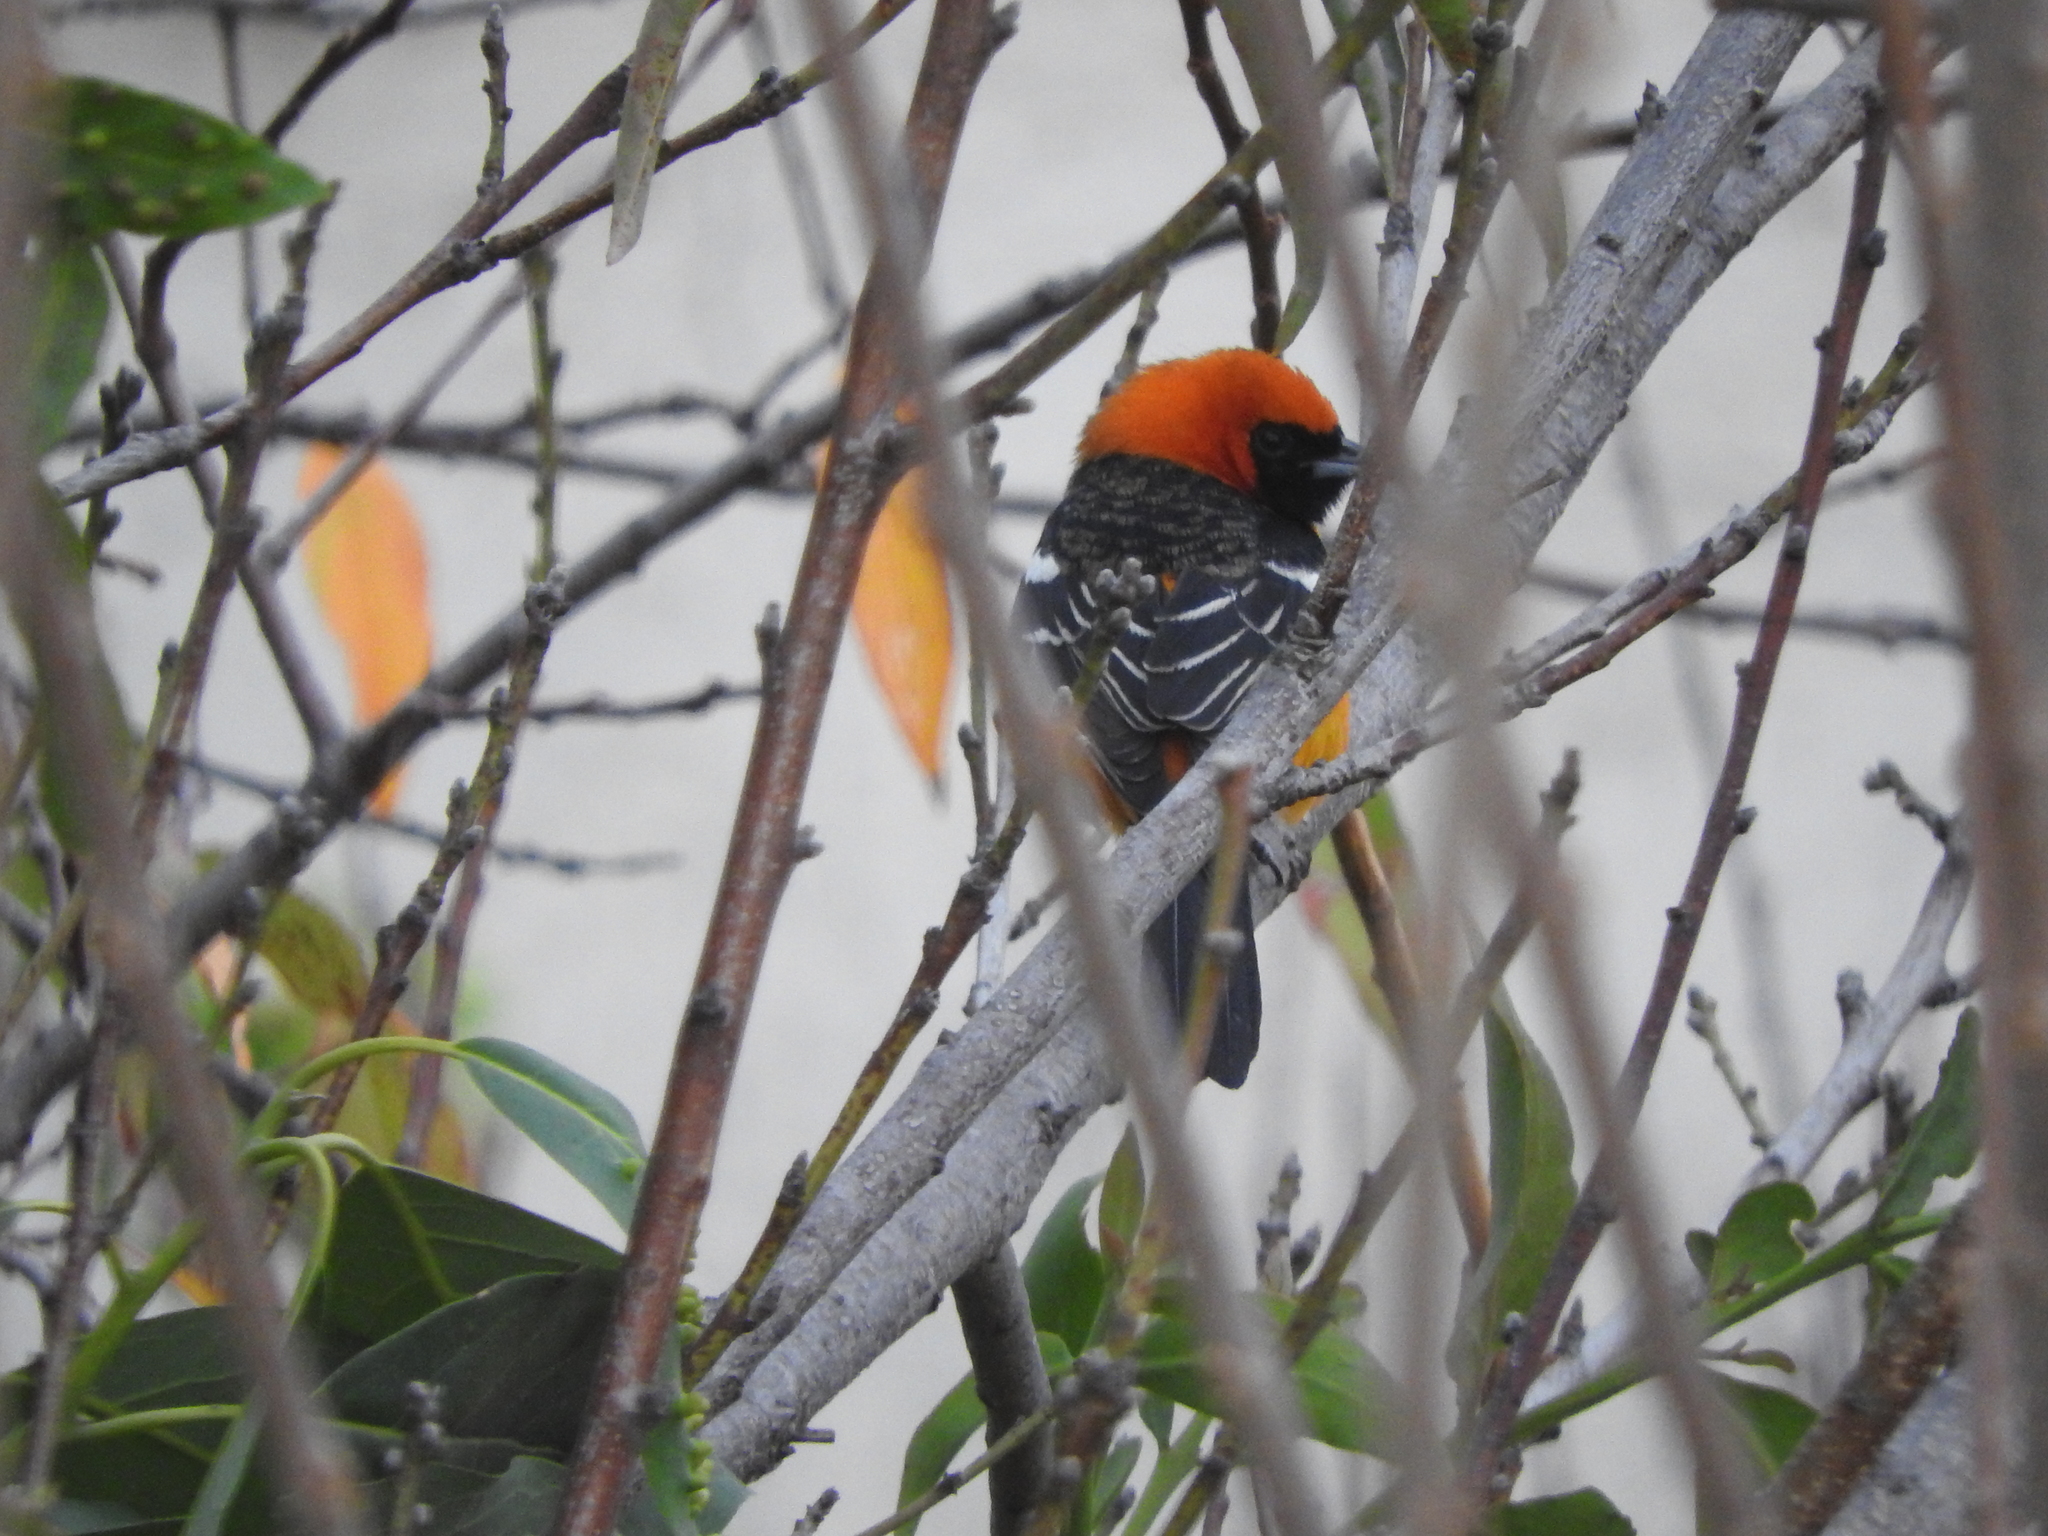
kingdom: Animalia
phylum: Chordata
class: Aves
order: Passeriformes
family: Icteridae
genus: Icterus
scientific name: Icterus cucullatus
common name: Hooded oriole
